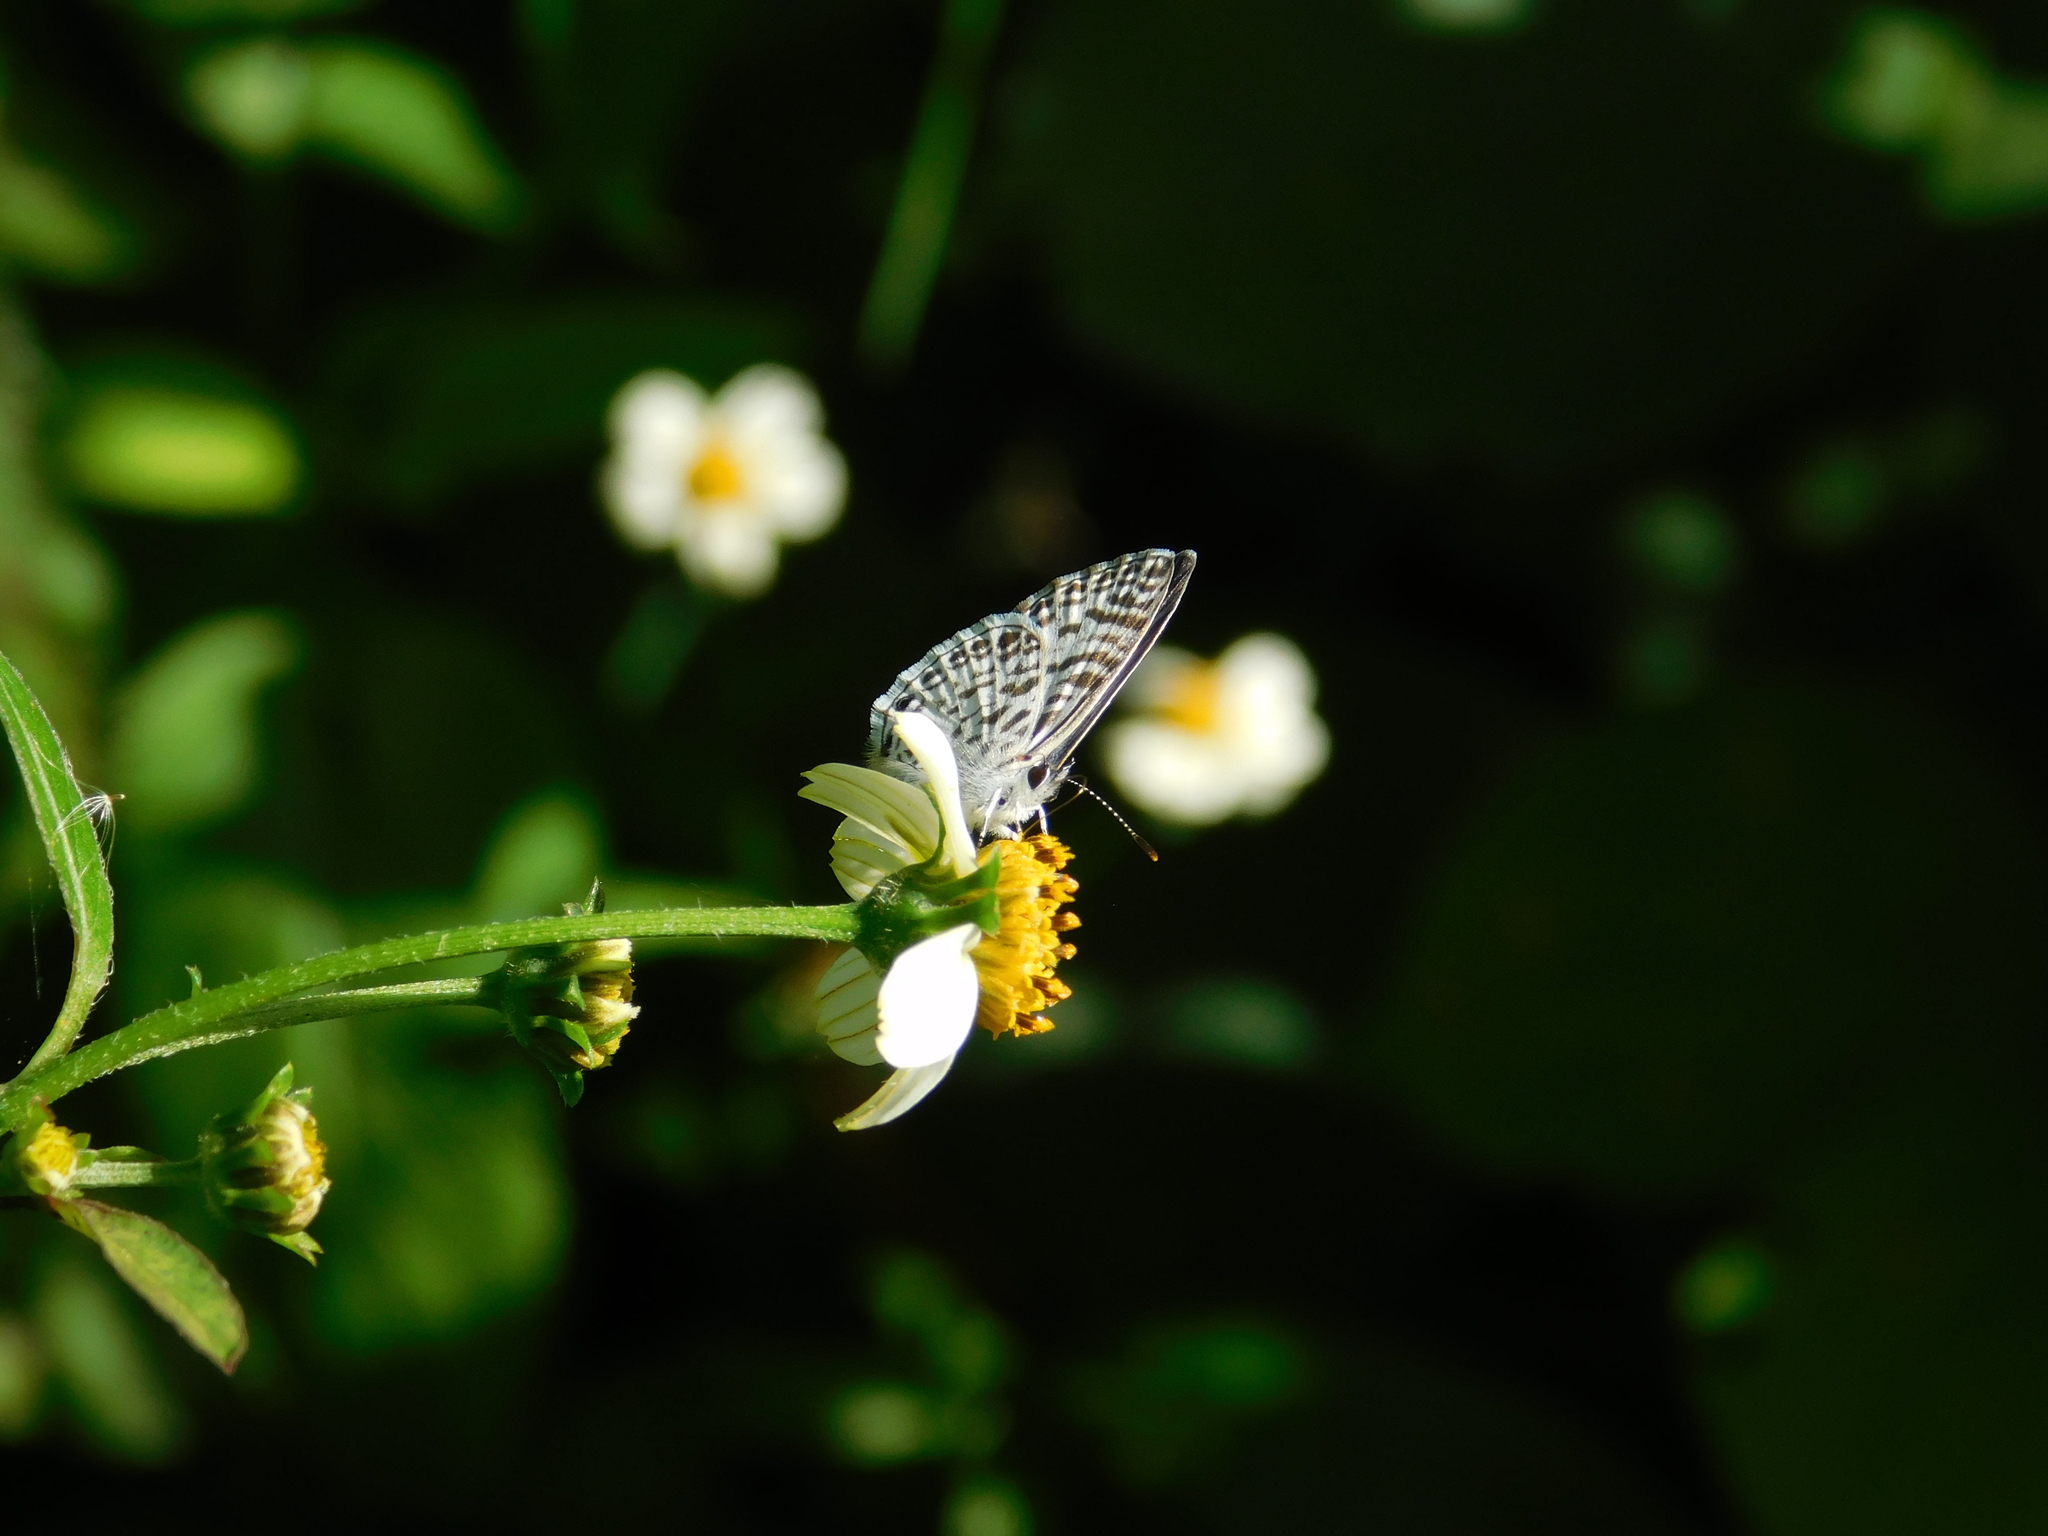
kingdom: Animalia
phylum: Arthropoda
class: Insecta
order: Lepidoptera
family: Lycaenidae
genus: Leptotes
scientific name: Leptotes cassius
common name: Cassius blue
